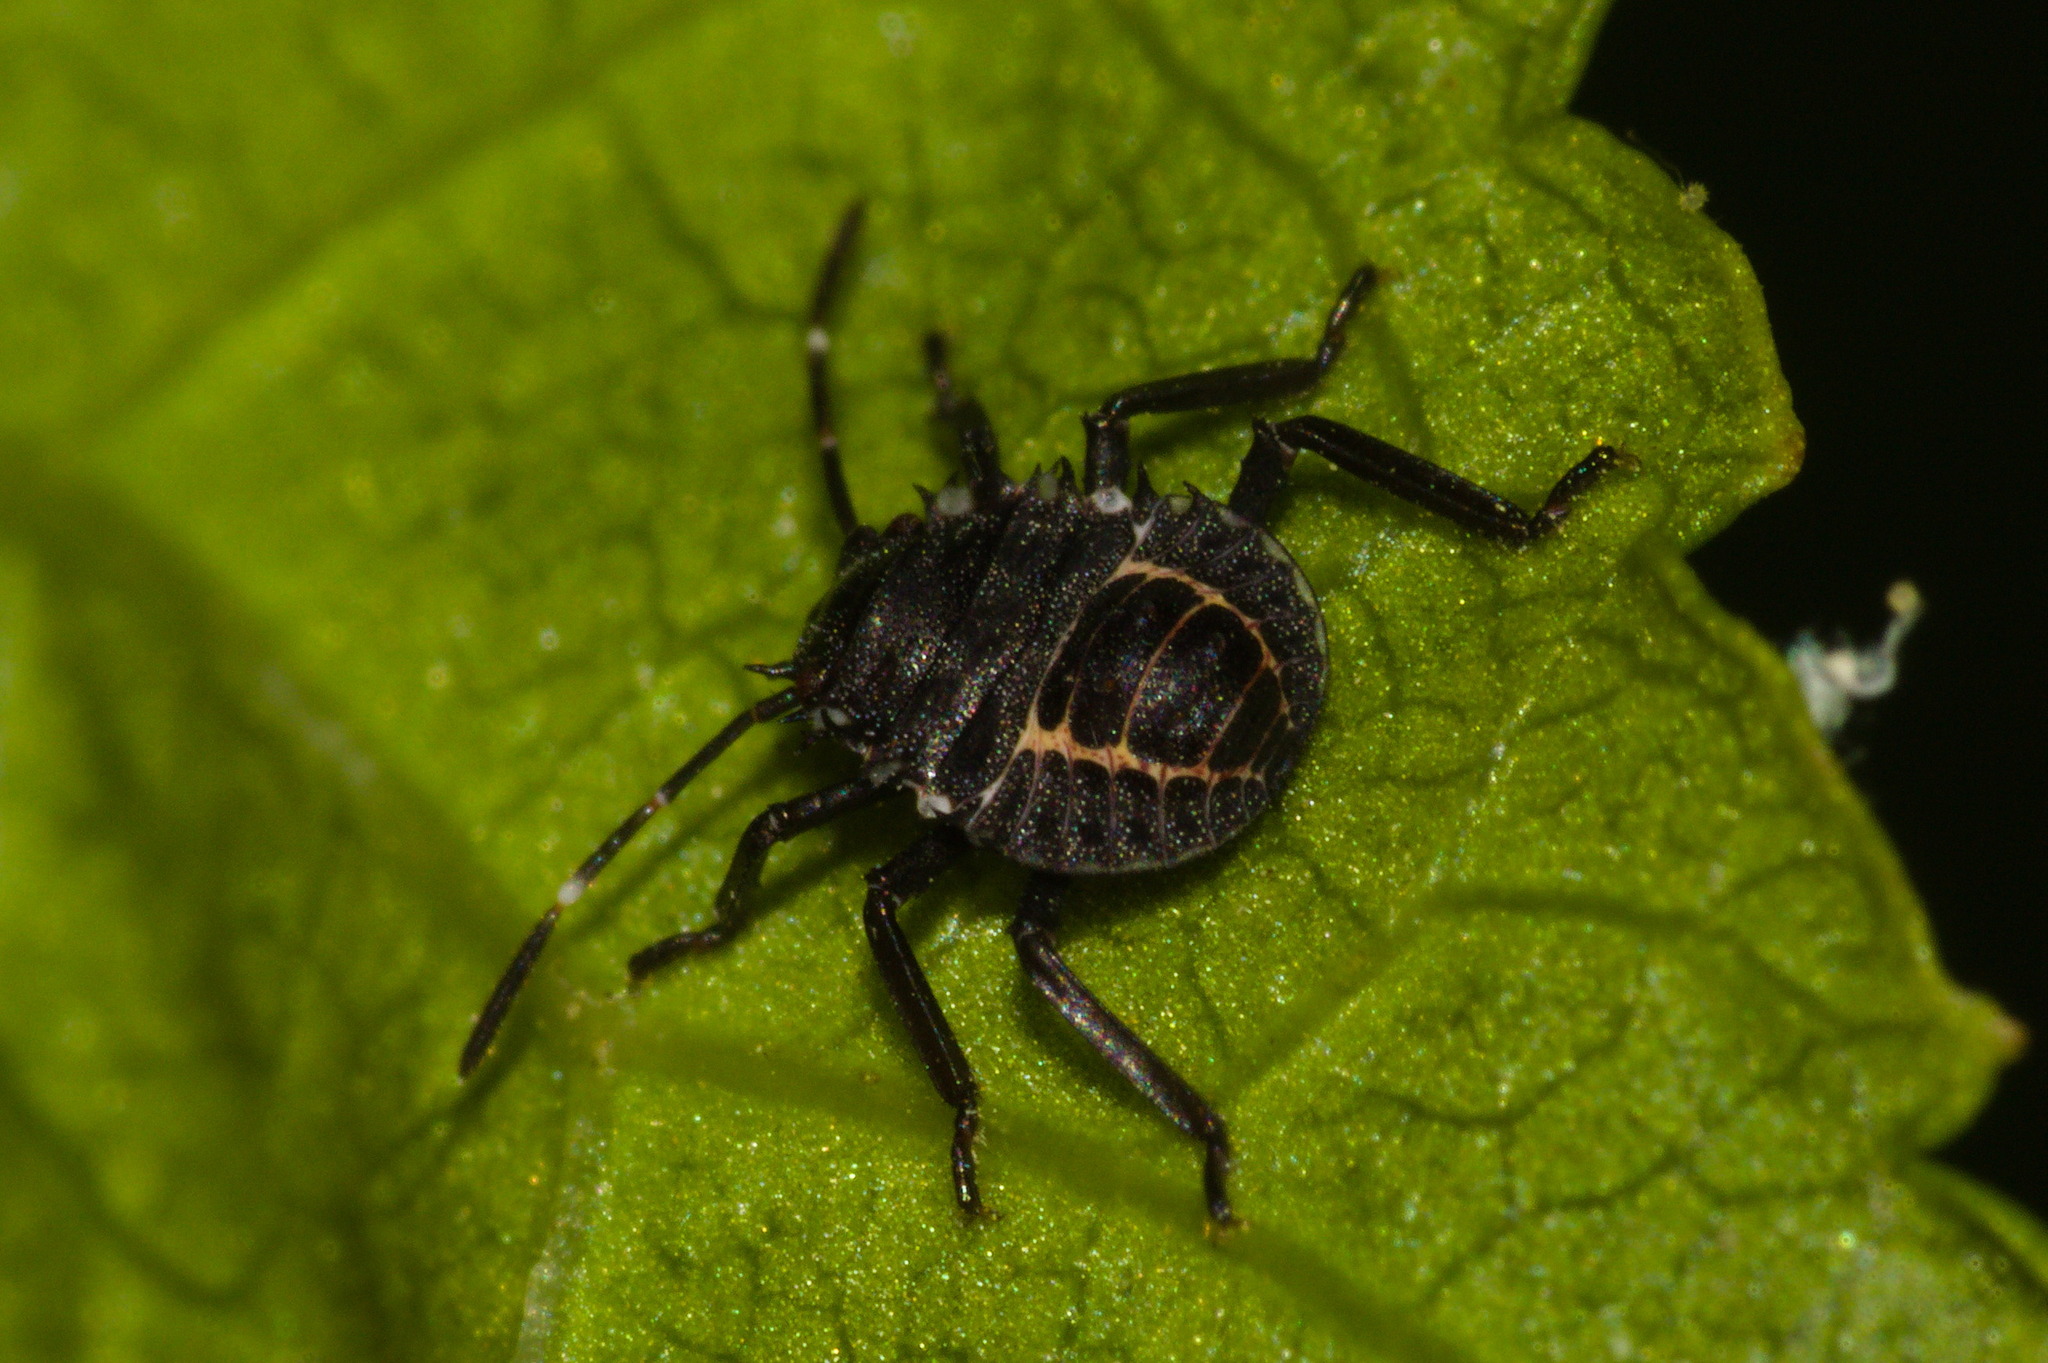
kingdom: Animalia
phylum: Arthropoda
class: Insecta
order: Hemiptera
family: Pentatomidae
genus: Halyomorpha
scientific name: Halyomorpha halys
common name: Brown marmorated stink bug
